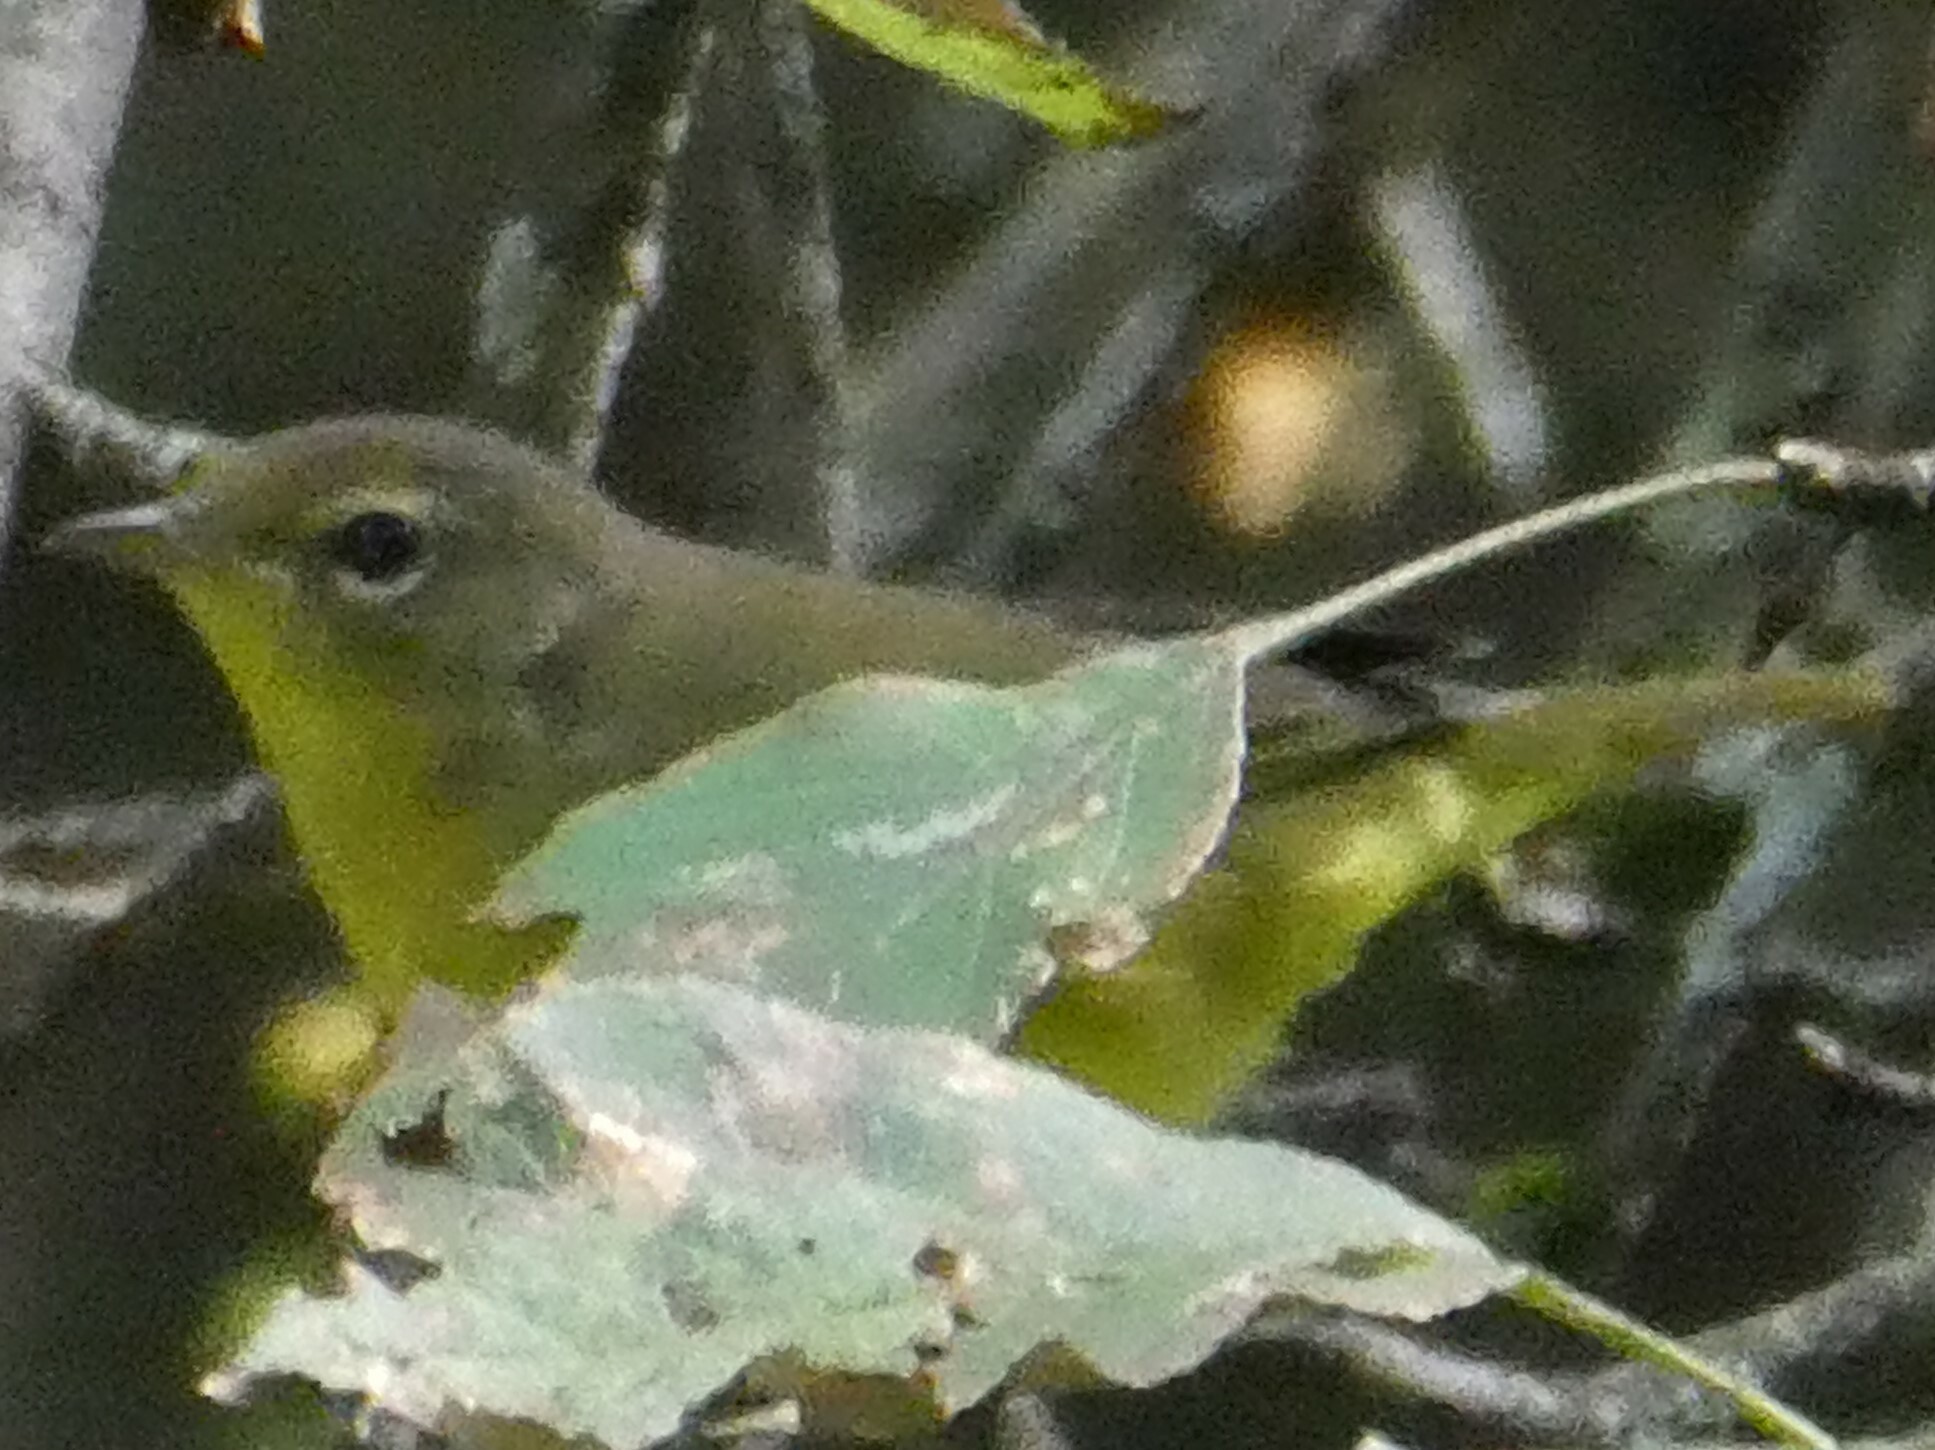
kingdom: Animalia
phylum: Chordata
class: Aves
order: Passeriformes
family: Parulidae
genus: Geothlypis
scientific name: Geothlypis philadelphia
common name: Mourning warbler
